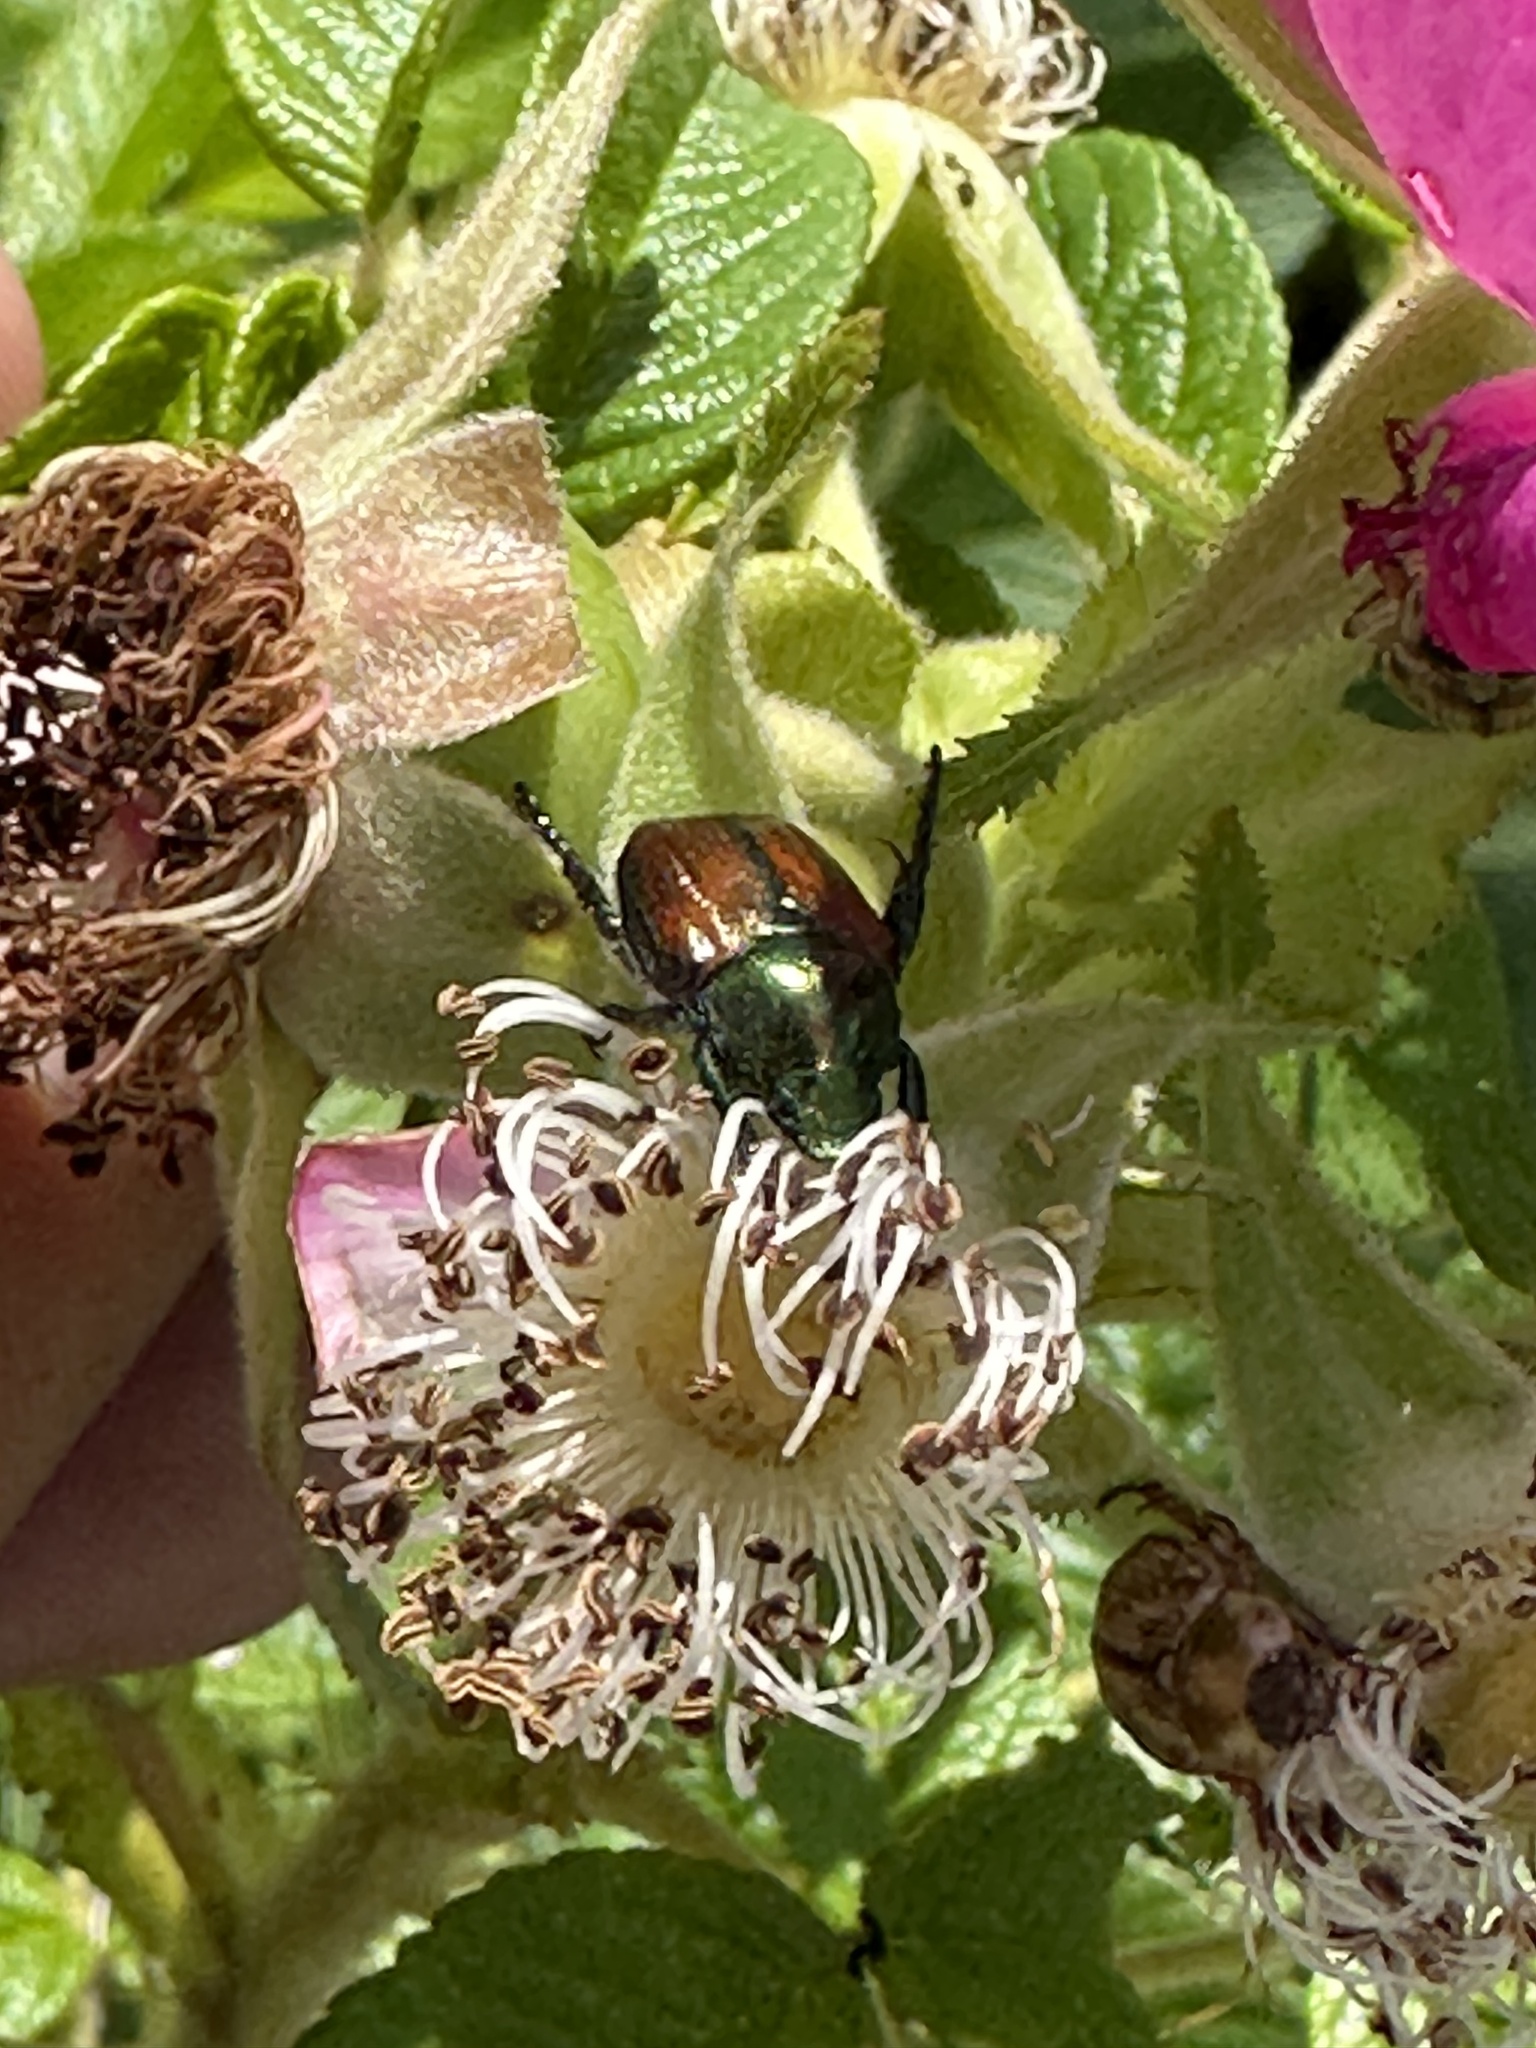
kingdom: Animalia
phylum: Arthropoda
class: Insecta
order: Coleoptera
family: Scarabaeidae
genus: Popillia
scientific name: Popillia japonica
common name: Japanese beetle
